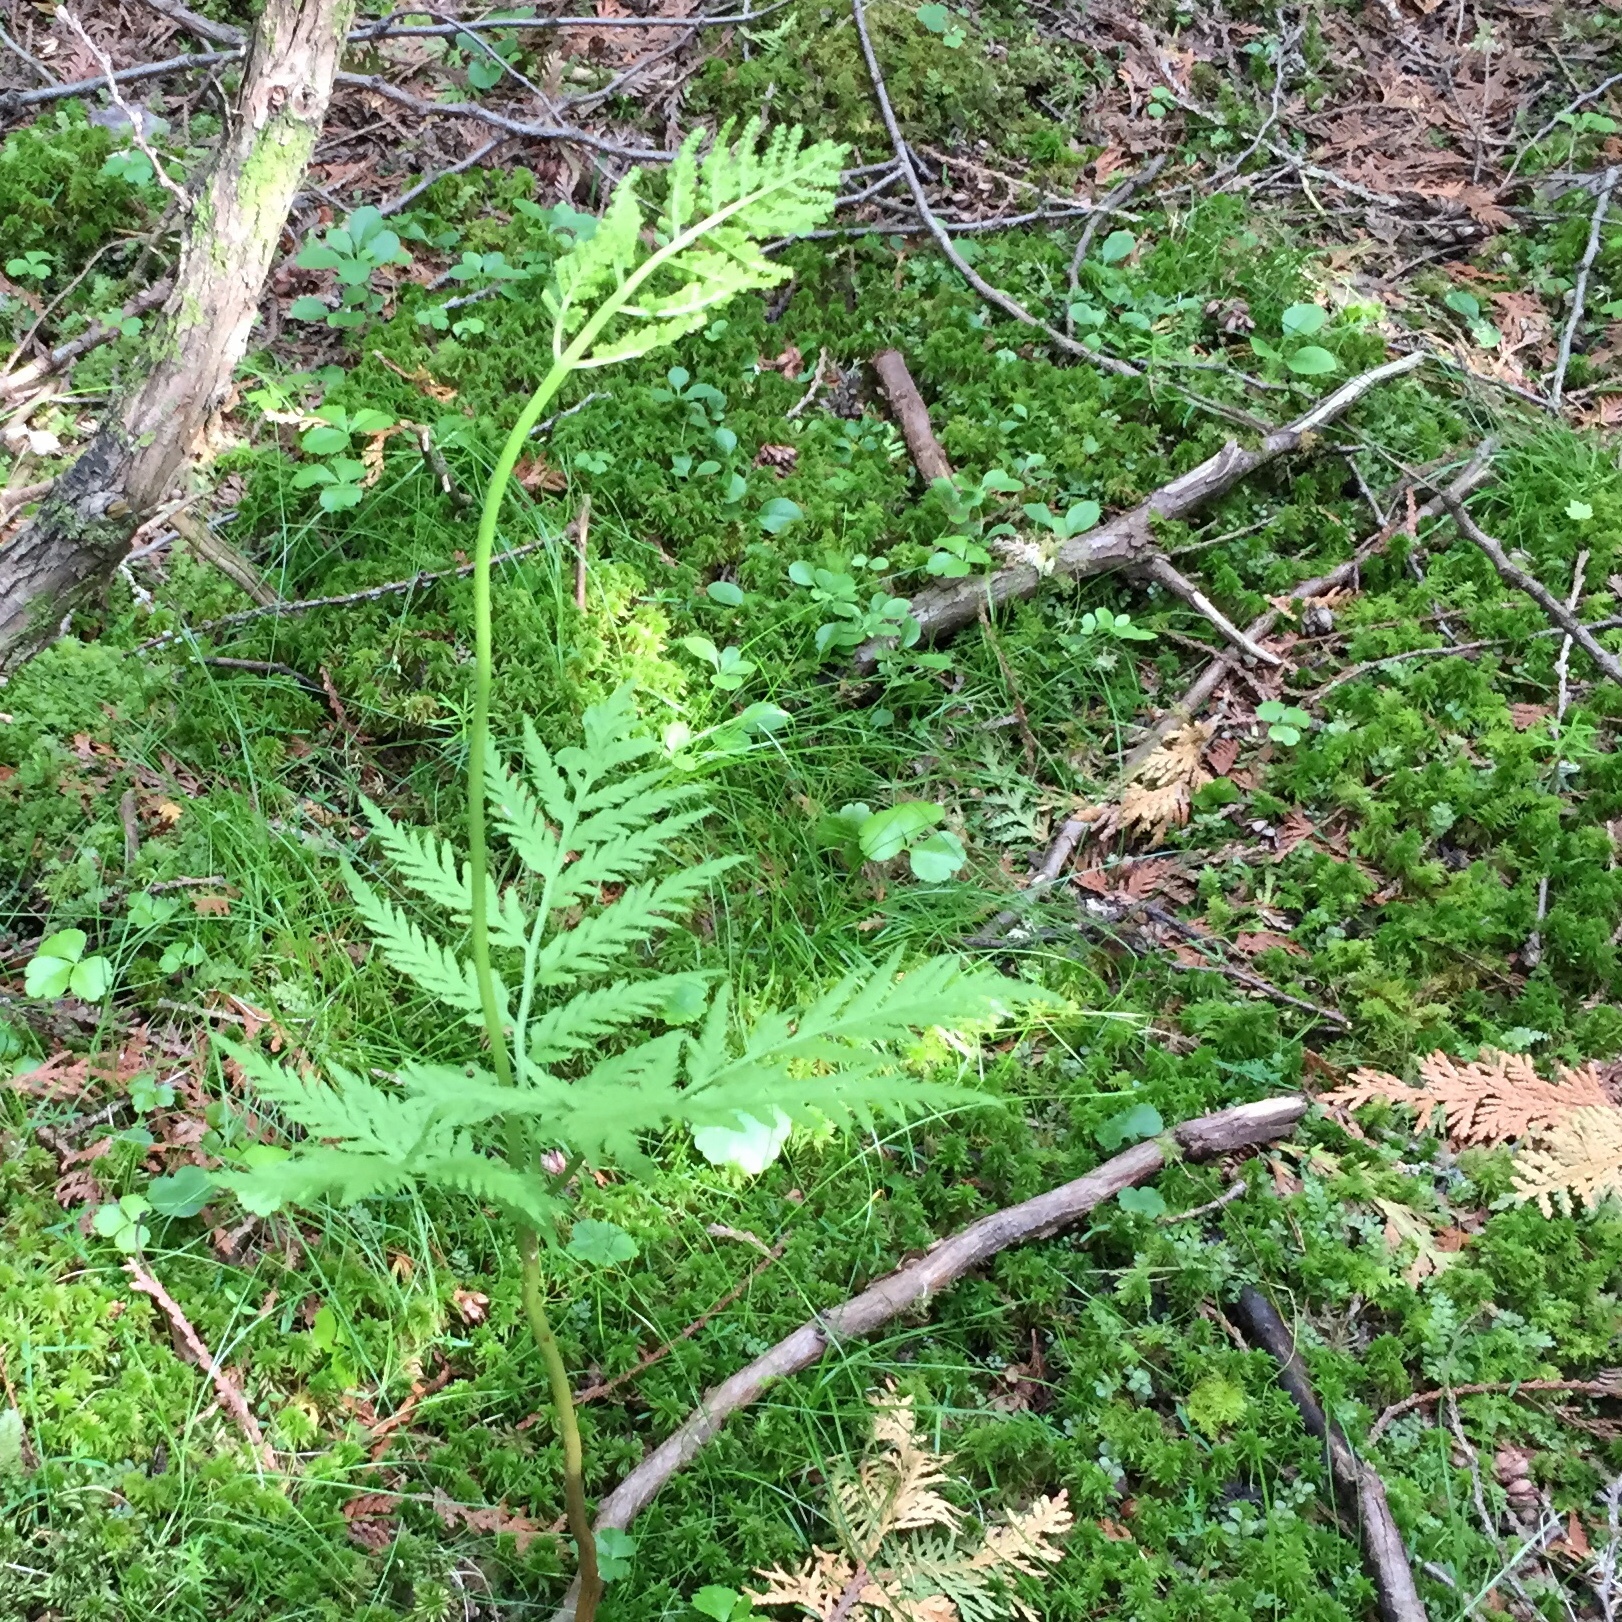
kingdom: Plantae
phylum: Tracheophyta
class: Polypodiopsida
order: Ophioglossales
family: Ophioglossaceae
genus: Botrypus
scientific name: Botrypus virginianus
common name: Common grapefern
